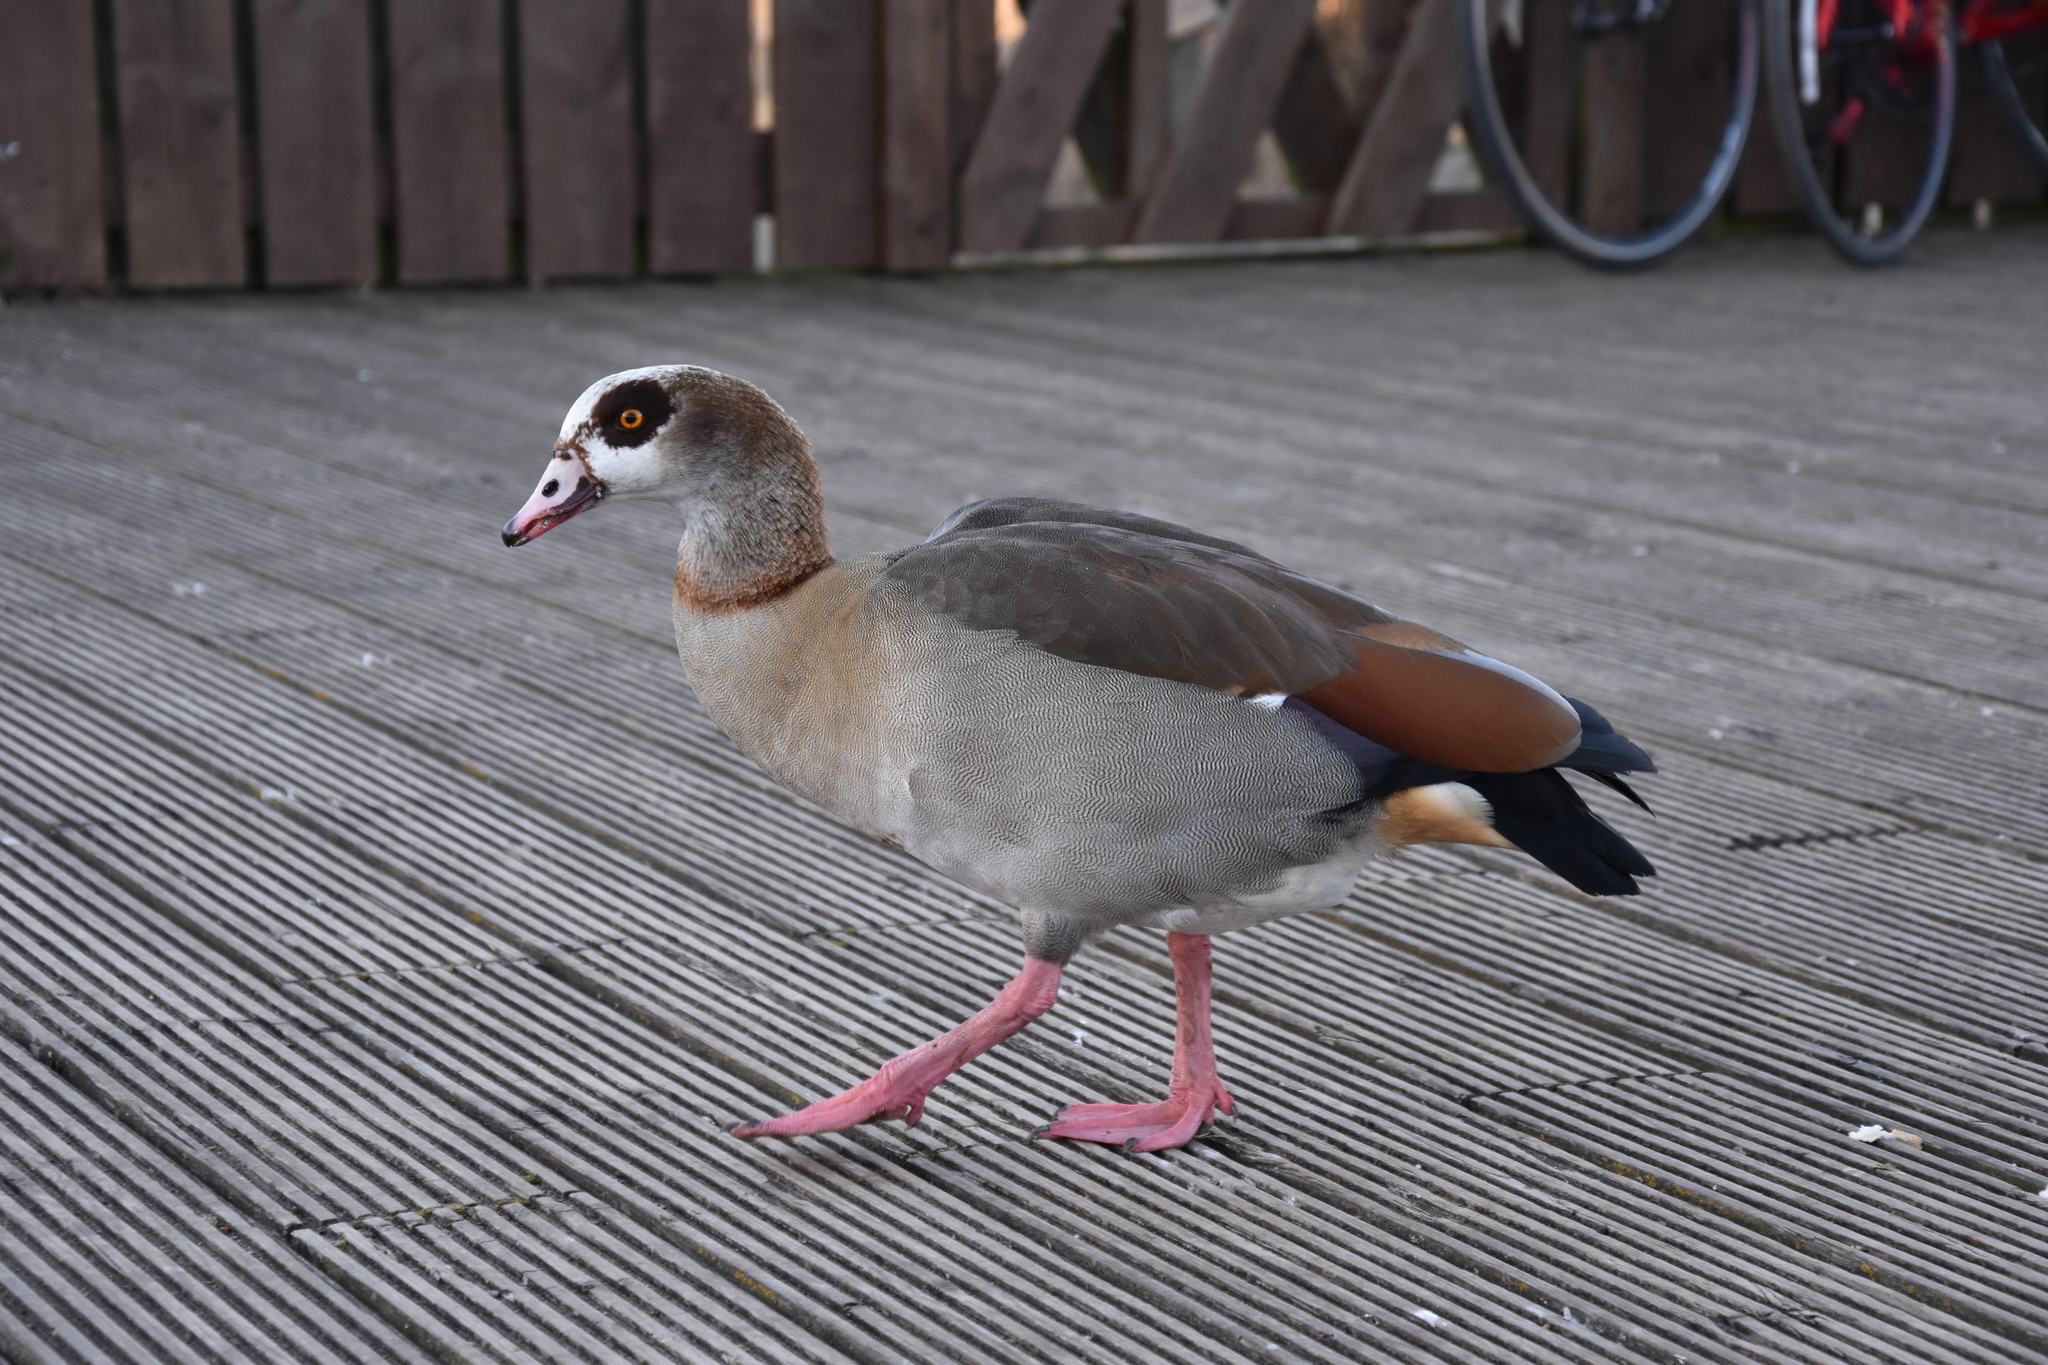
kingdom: Animalia
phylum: Chordata
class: Aves
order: Anseriformes
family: Anatidae
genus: Alopochen
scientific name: Alopochen aegyptiaca
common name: Egyptian goose
